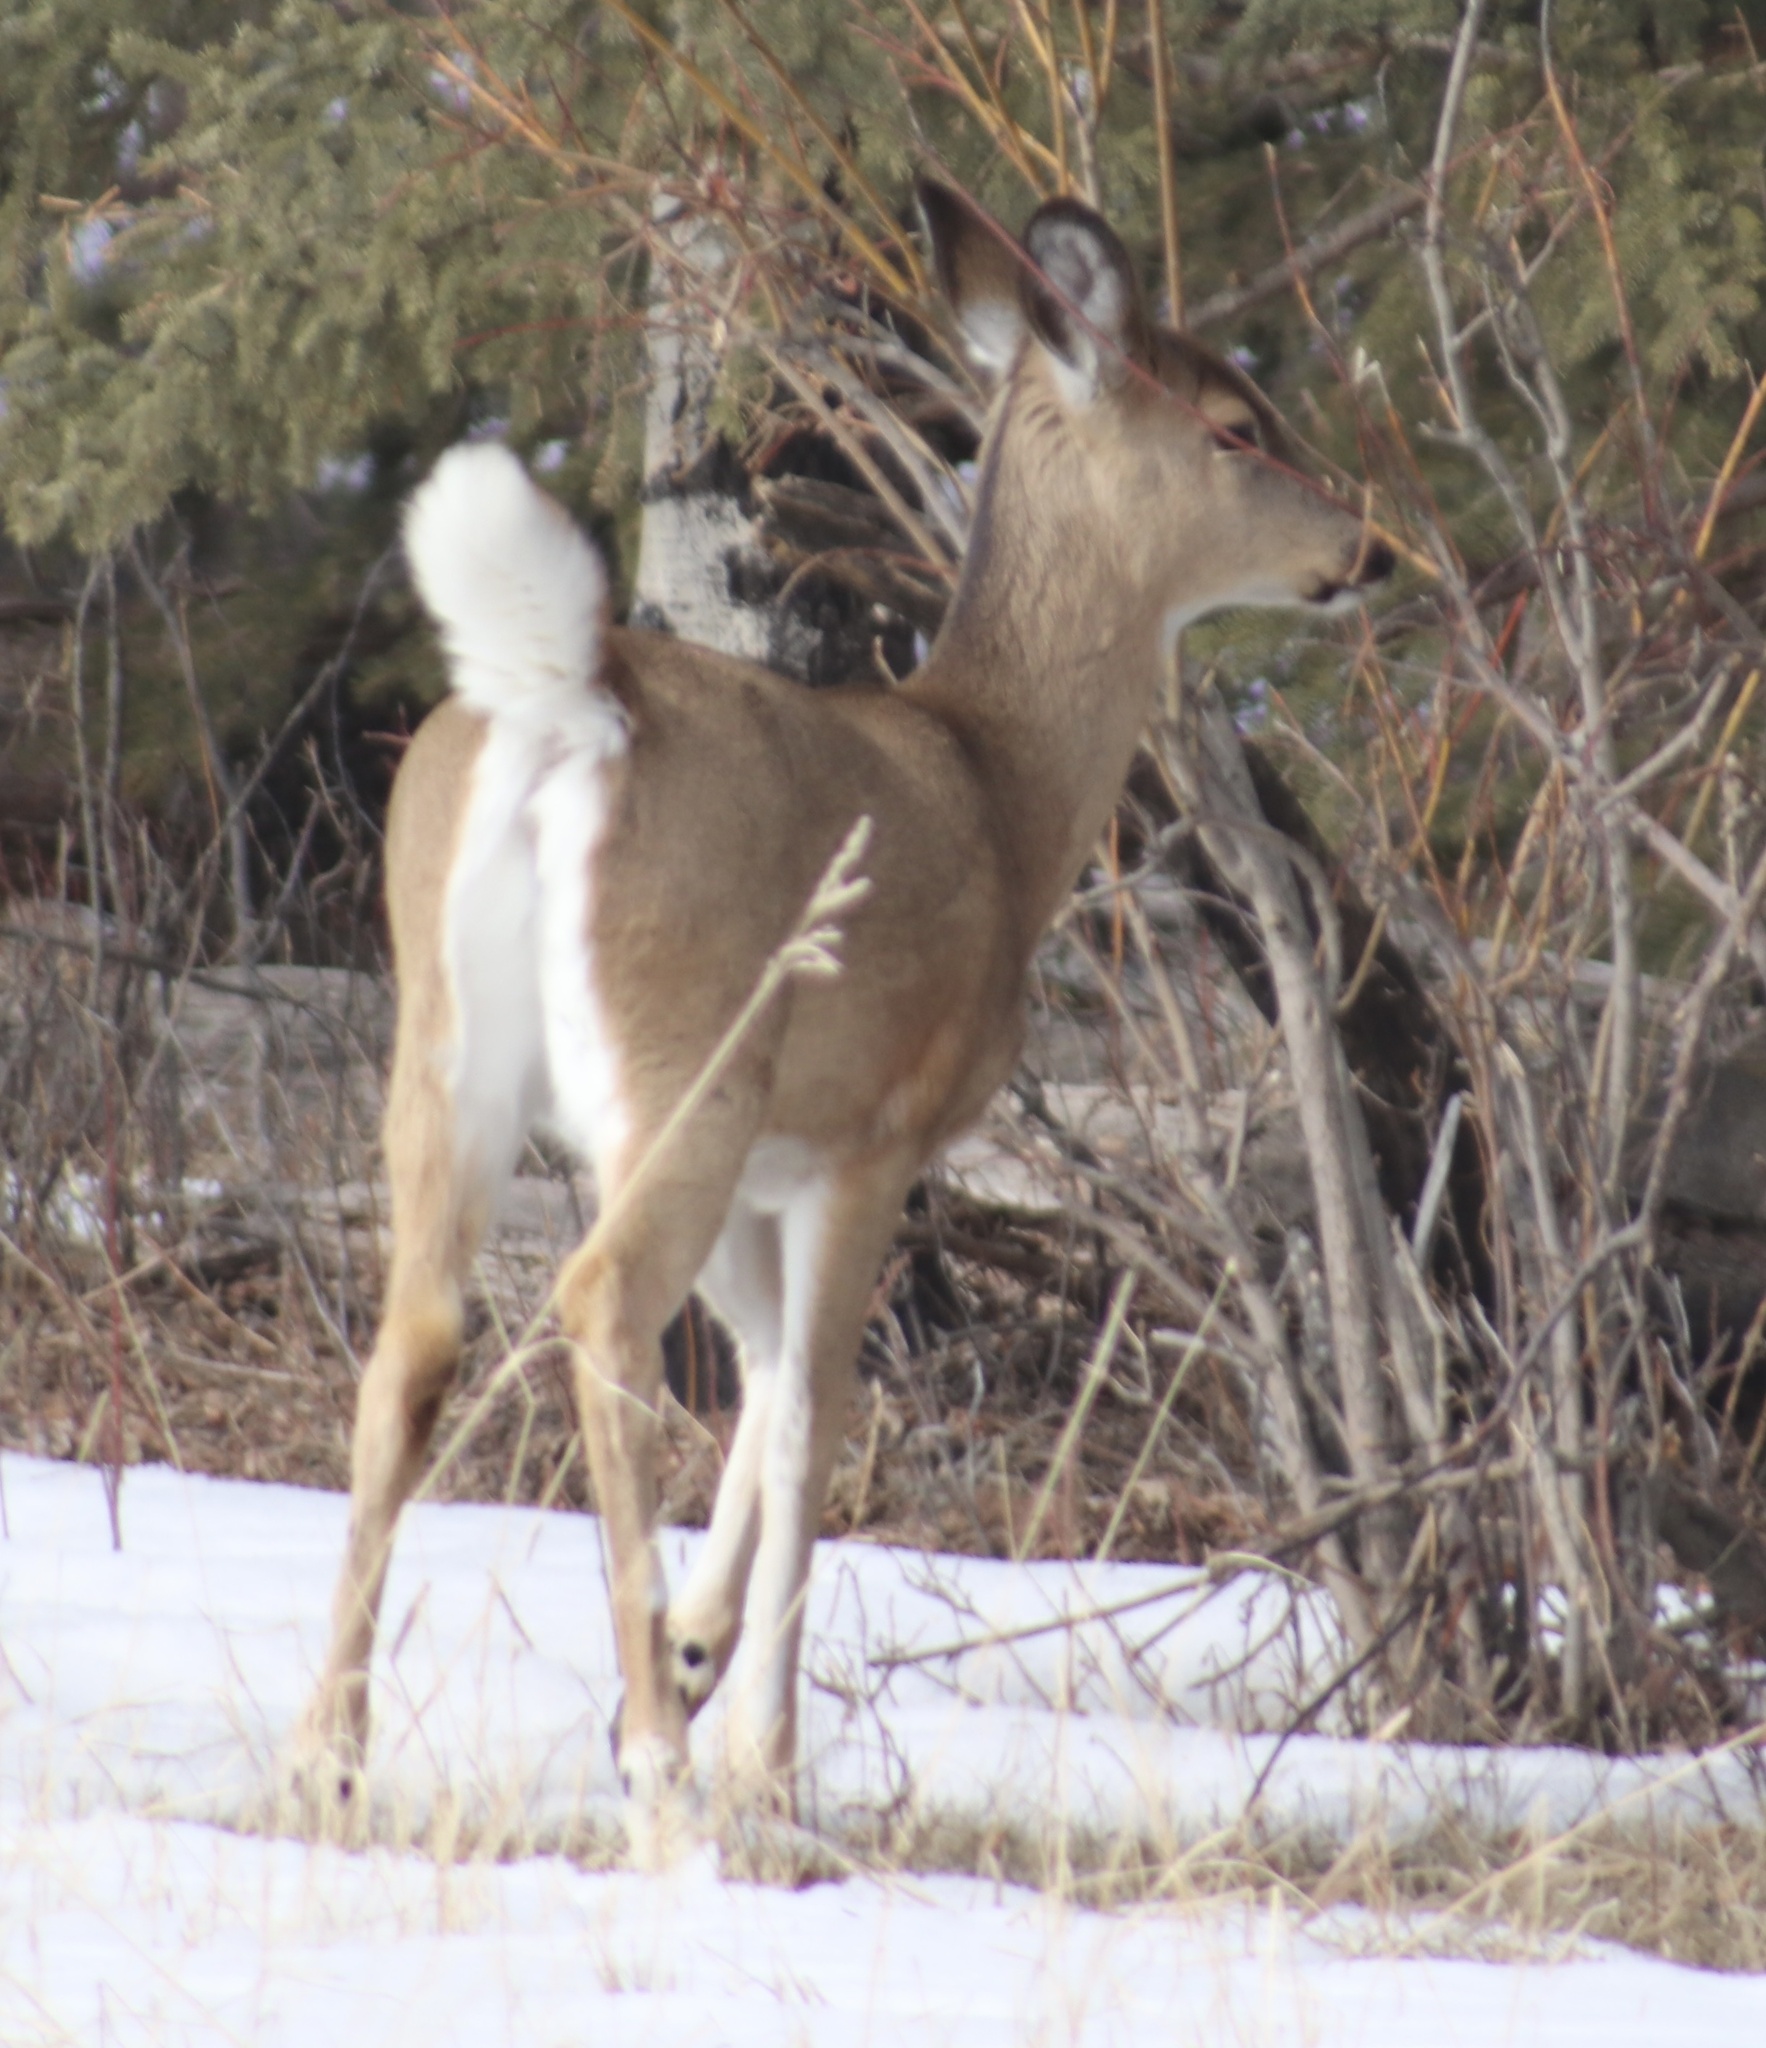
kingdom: Animalia
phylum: Chordata
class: Mammalia
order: Artiodactyla
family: Cervidae
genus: Odocoileus
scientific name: Odocoileus virginianus
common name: White-tailed deer
